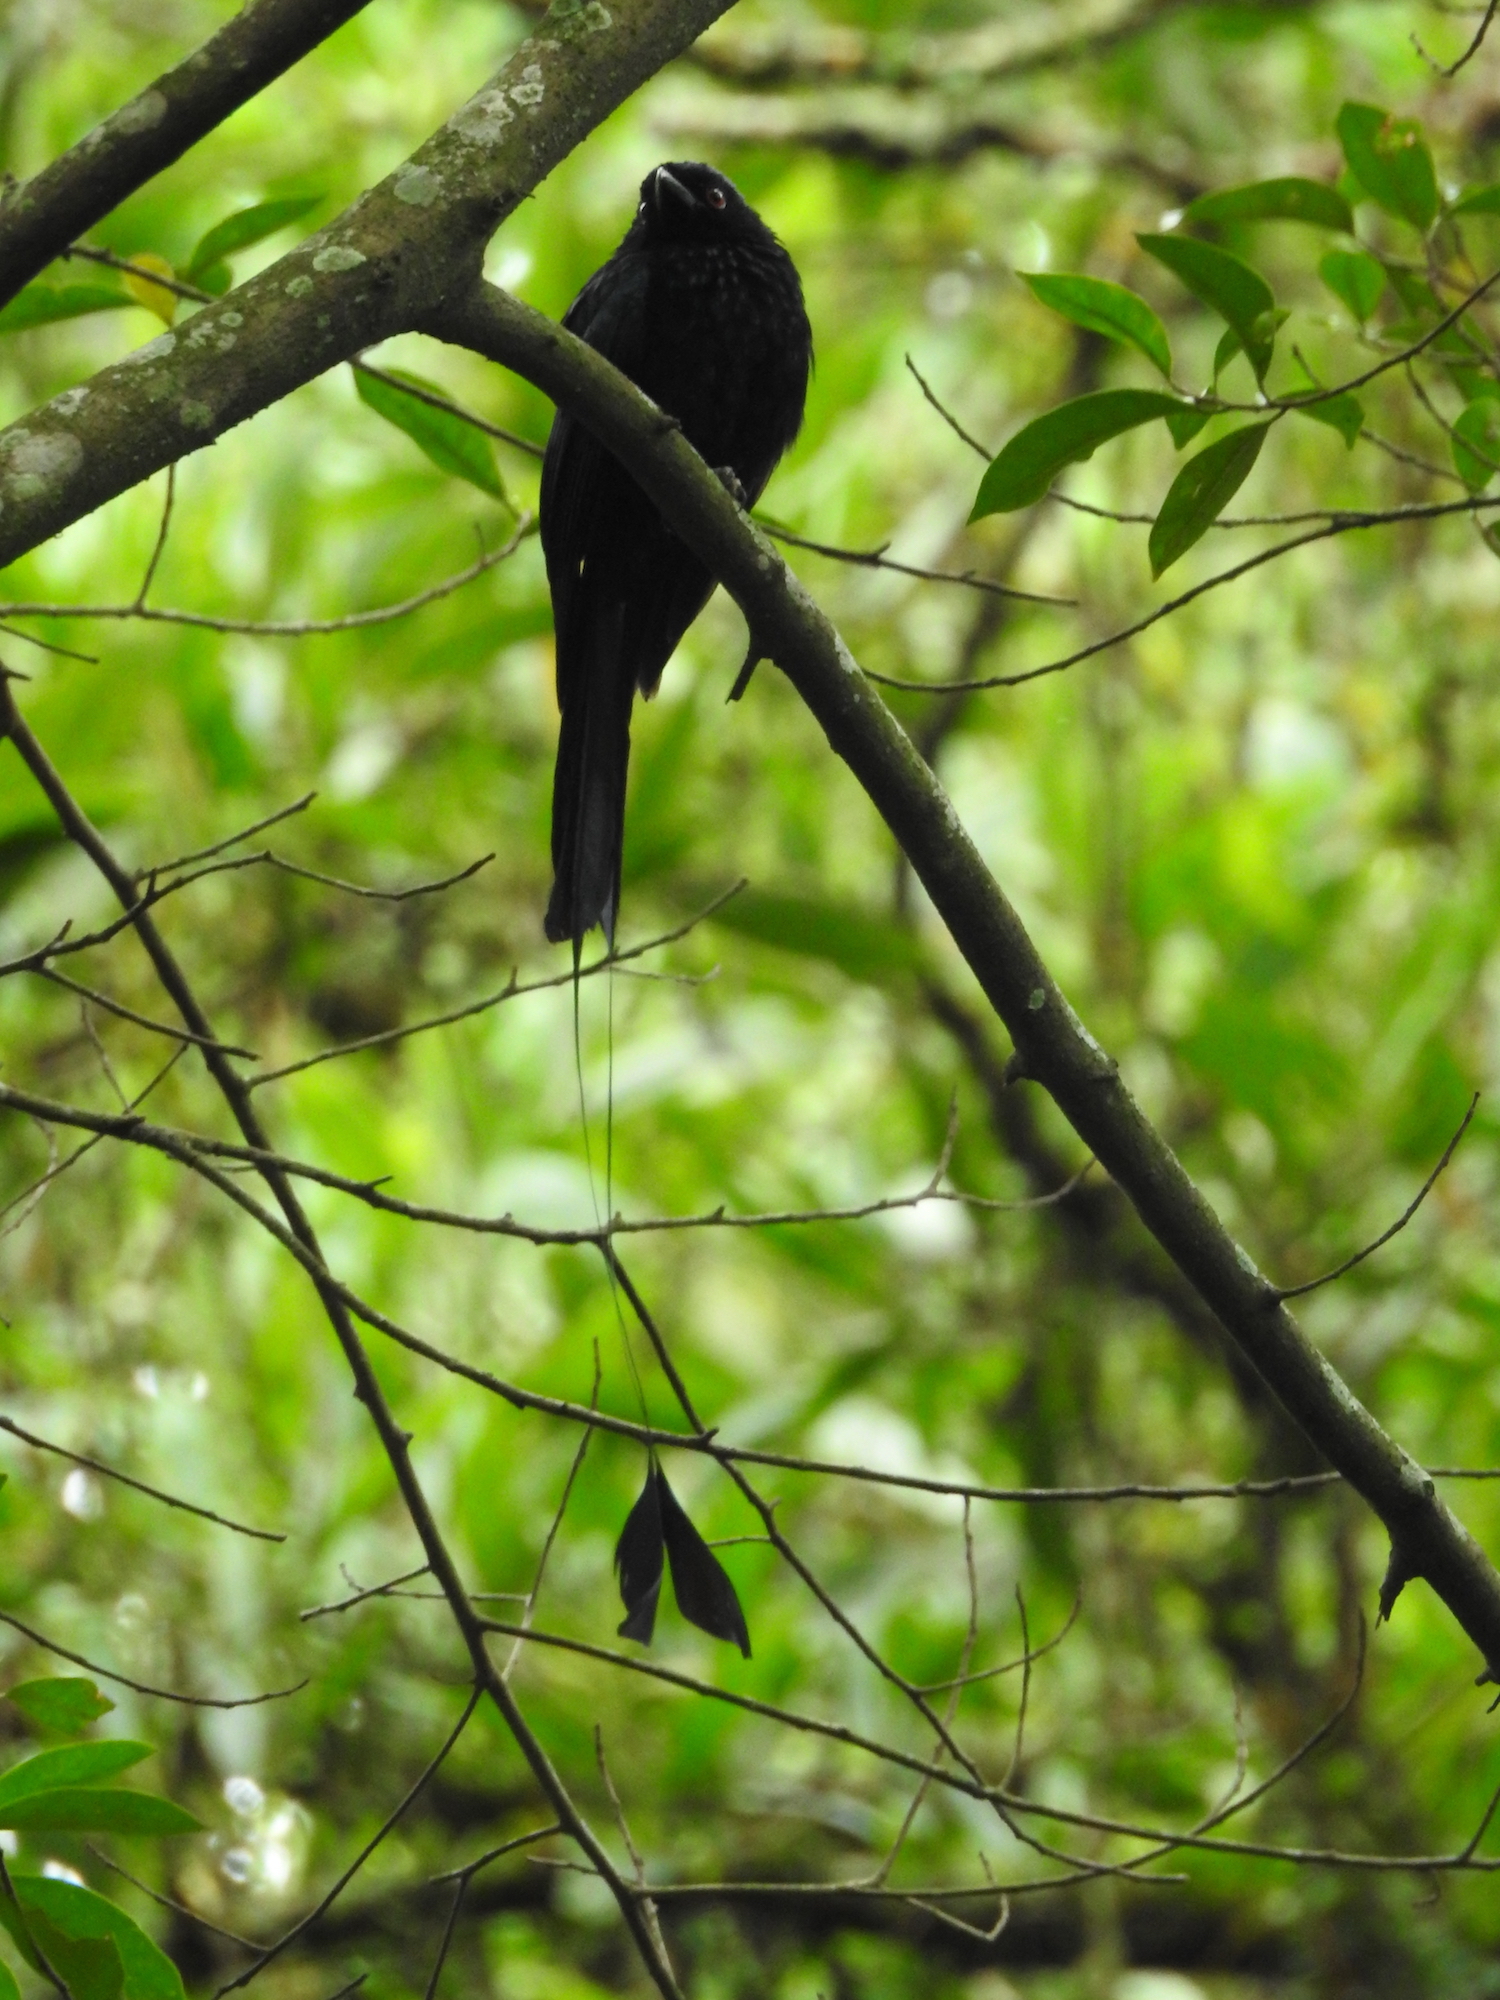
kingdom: Animalia
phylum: Chordata
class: Aves
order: Passeriformes
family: Dicruridae
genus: Dicrurus
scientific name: Dicrurus paradiseus
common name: Greater racket-tailed drongo
